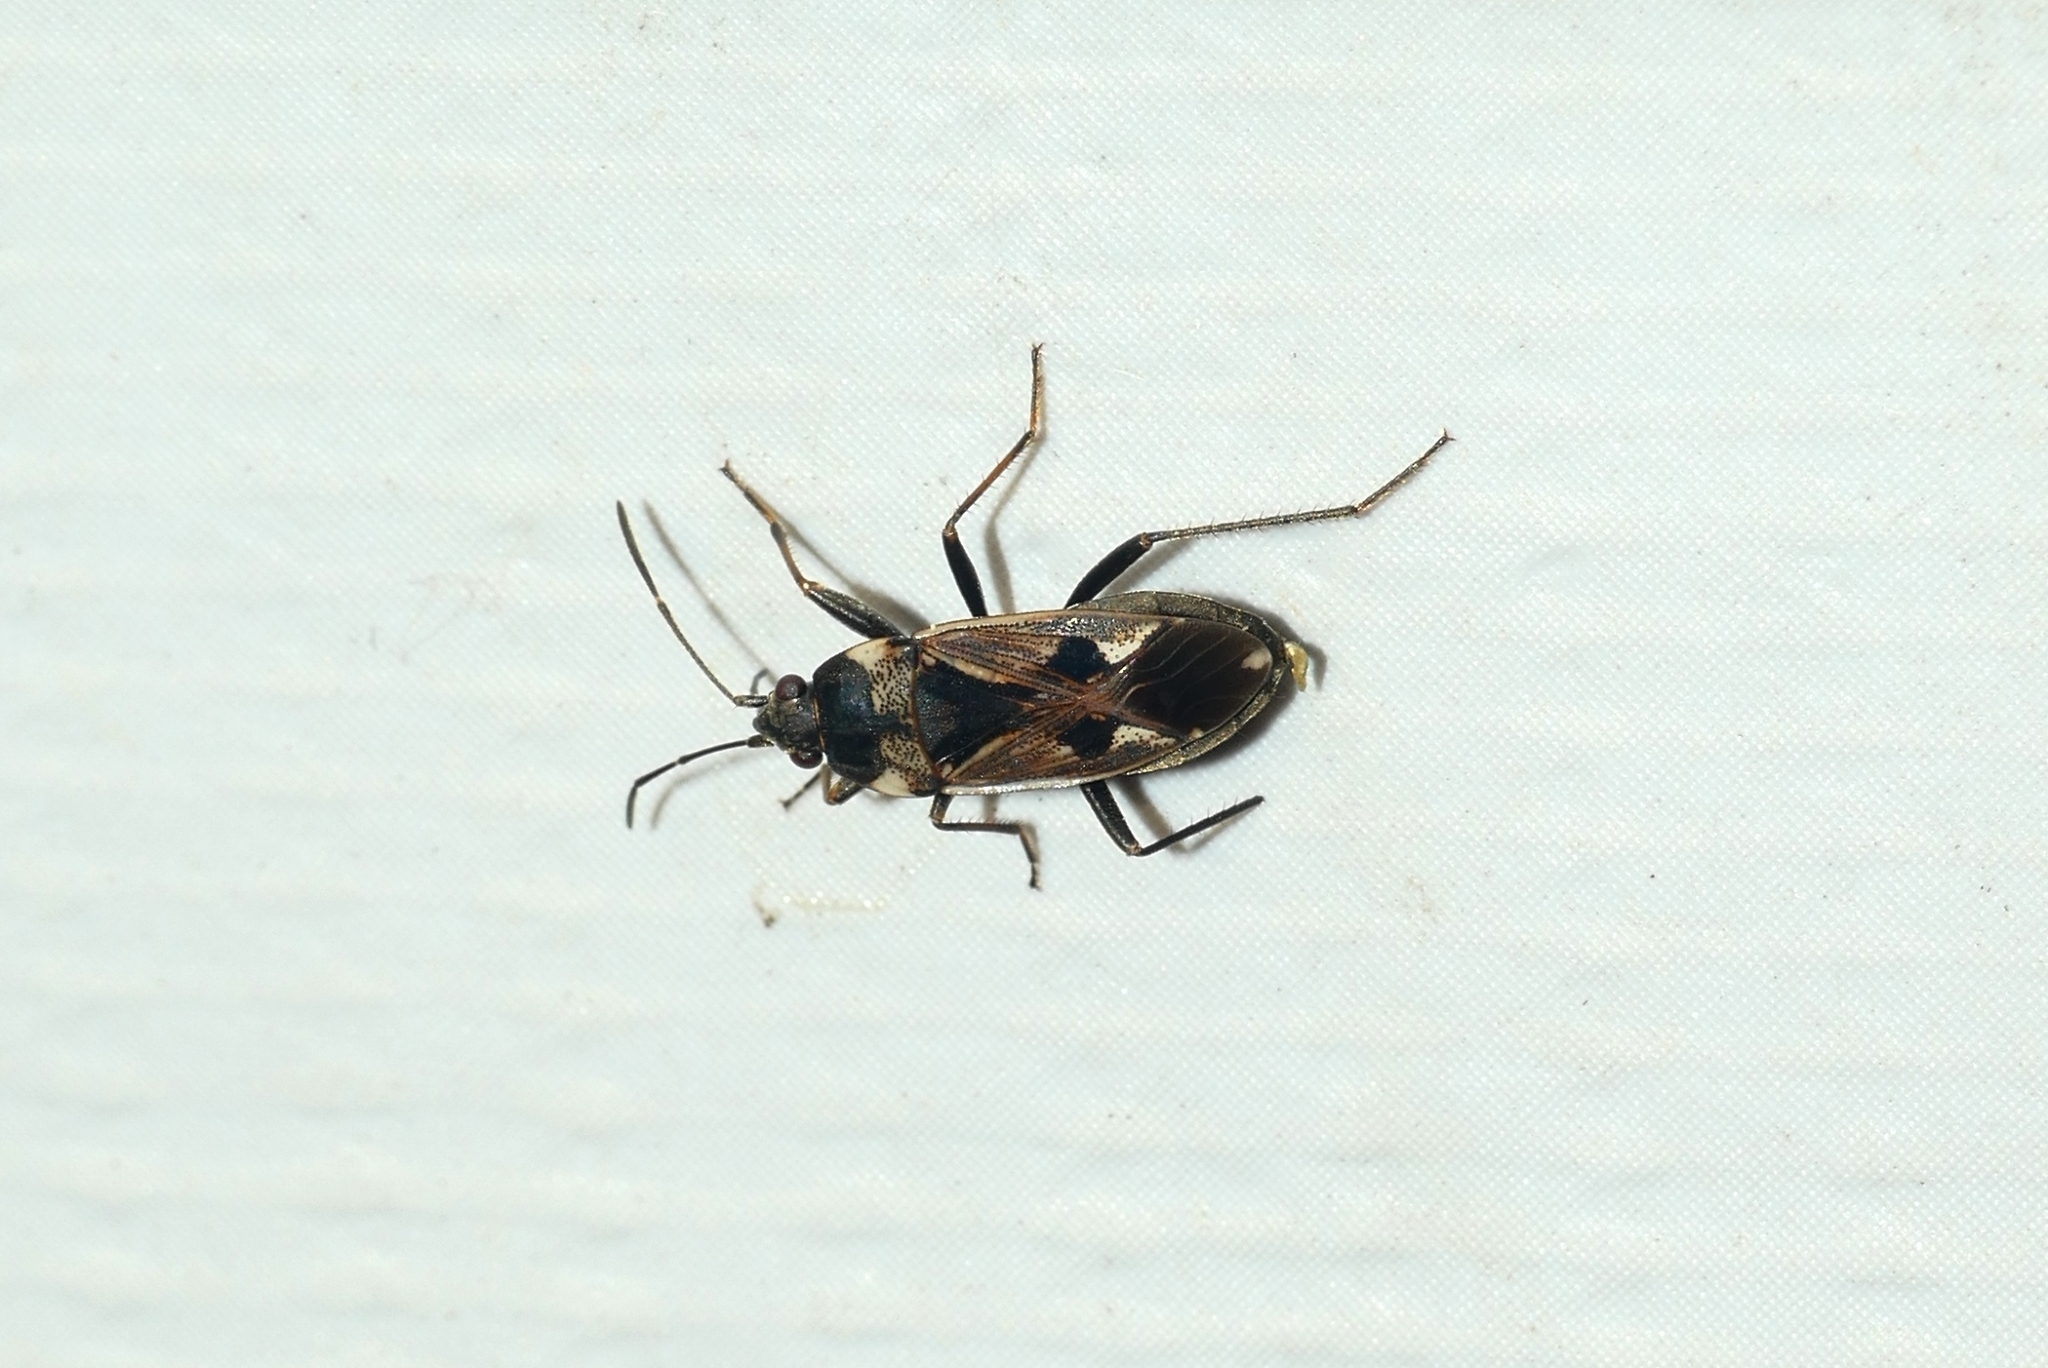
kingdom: Animalia
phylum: Arthropoda
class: Insecta
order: Hemiptera
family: Rhyparochromidae
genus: Rhyparochromus
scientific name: Rhyparochromus vulgaris
